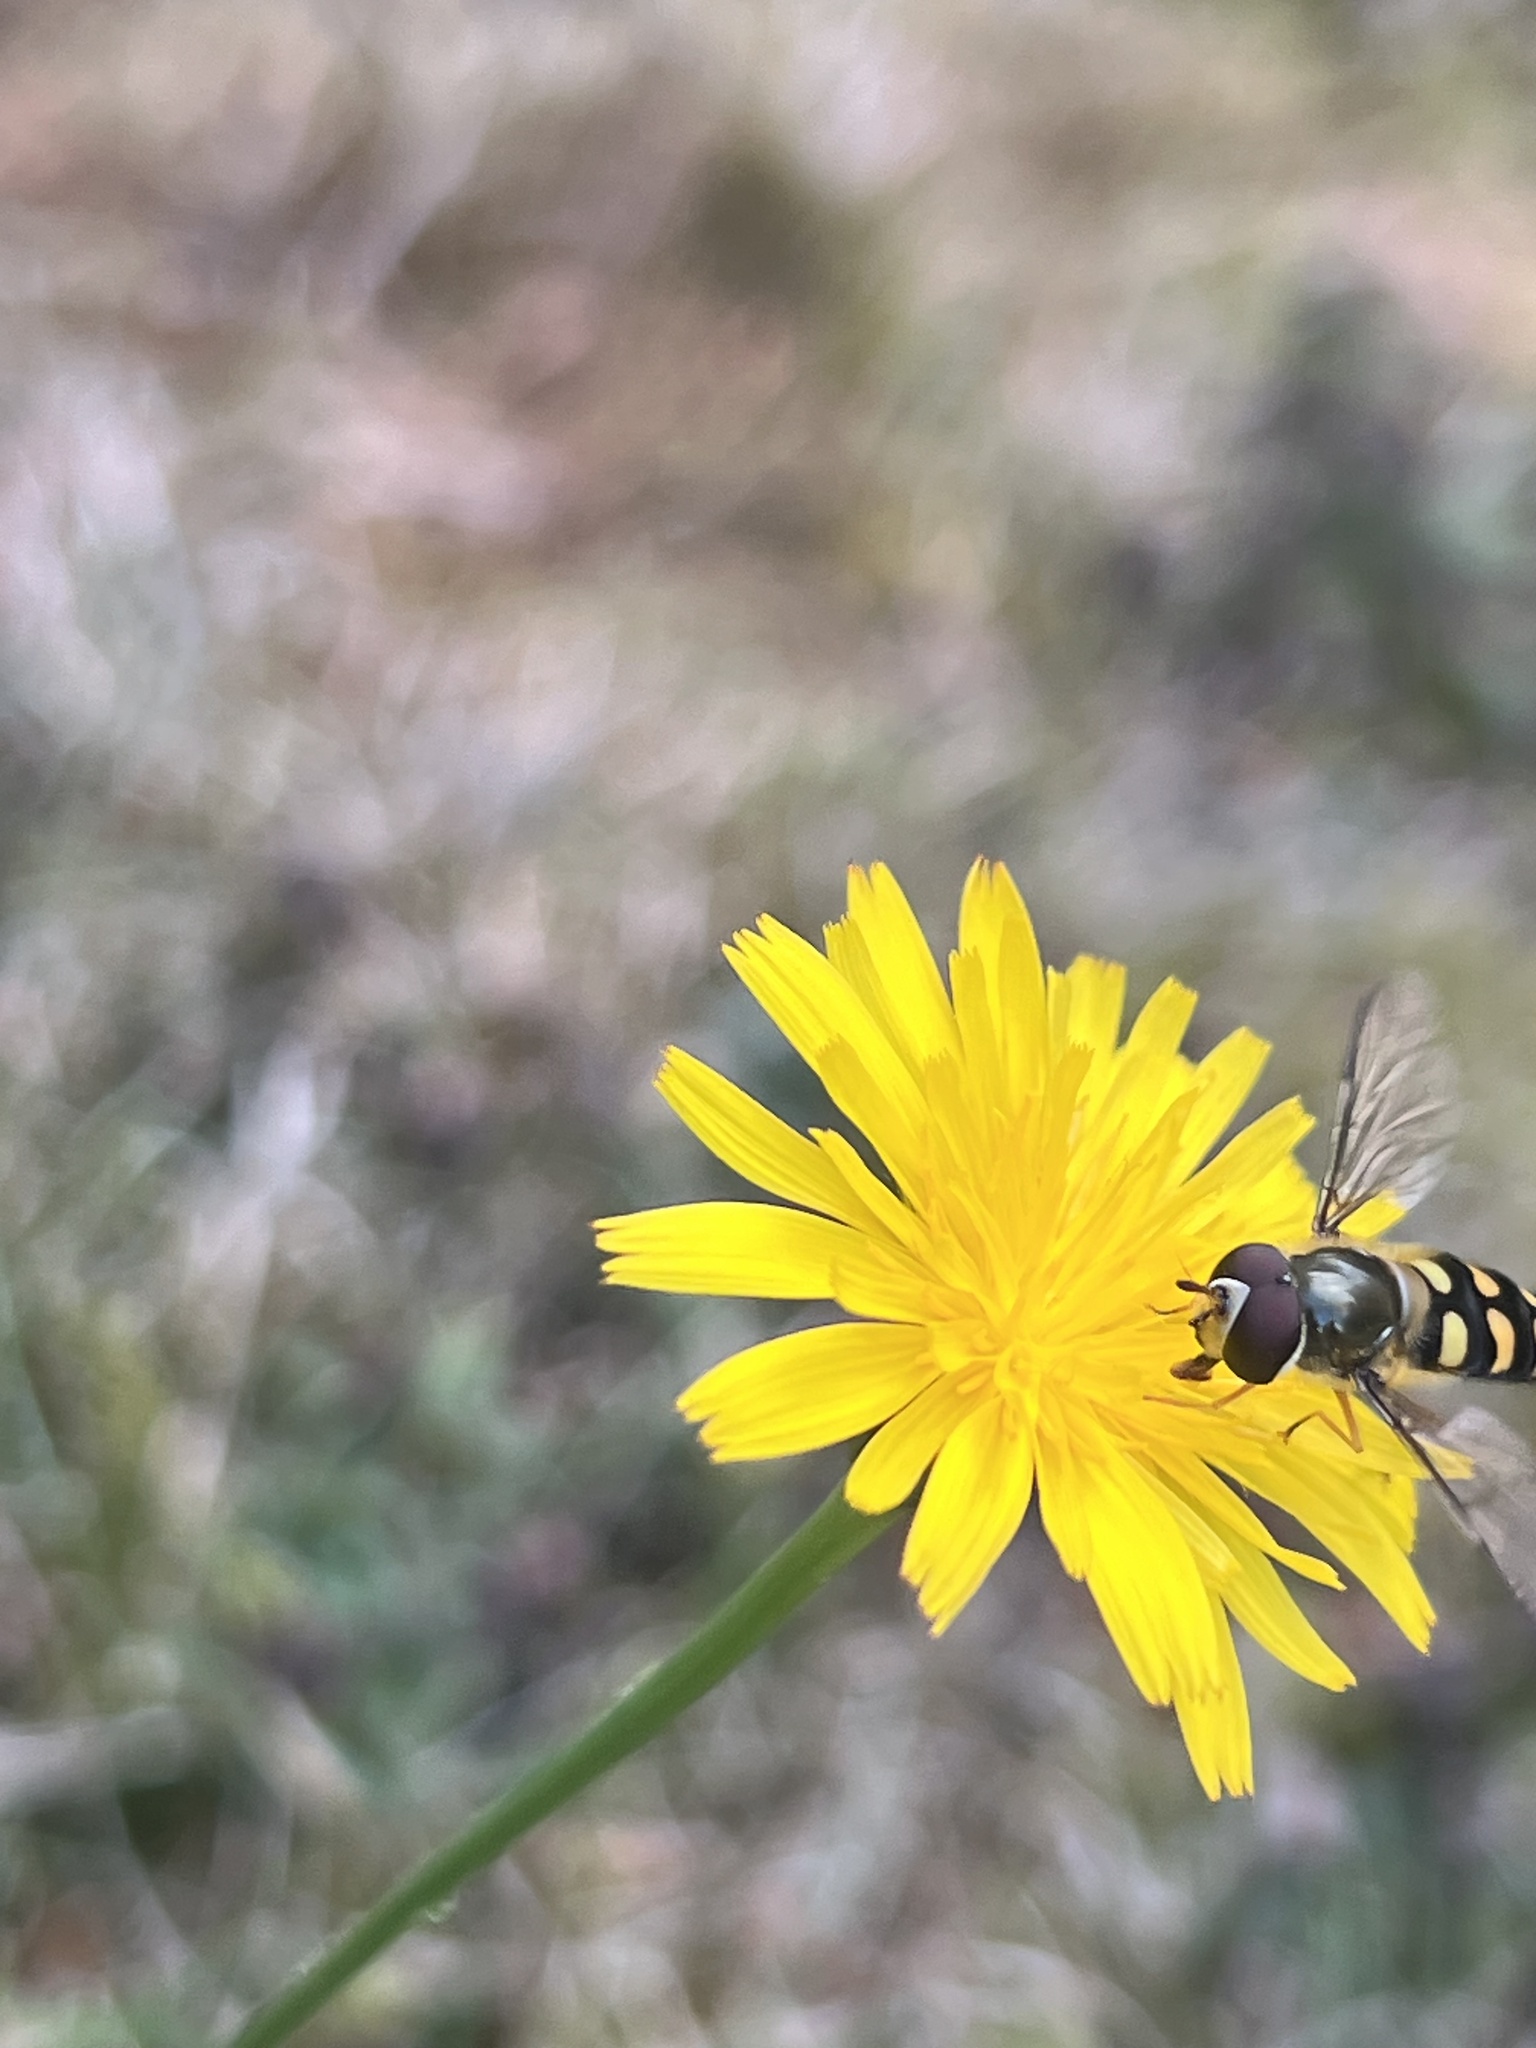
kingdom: Animalia
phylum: Arthropoda
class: Insecta
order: Diptera
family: Syrphidae
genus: Lapposyrphus
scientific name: Lapposyrphus lapponicus
